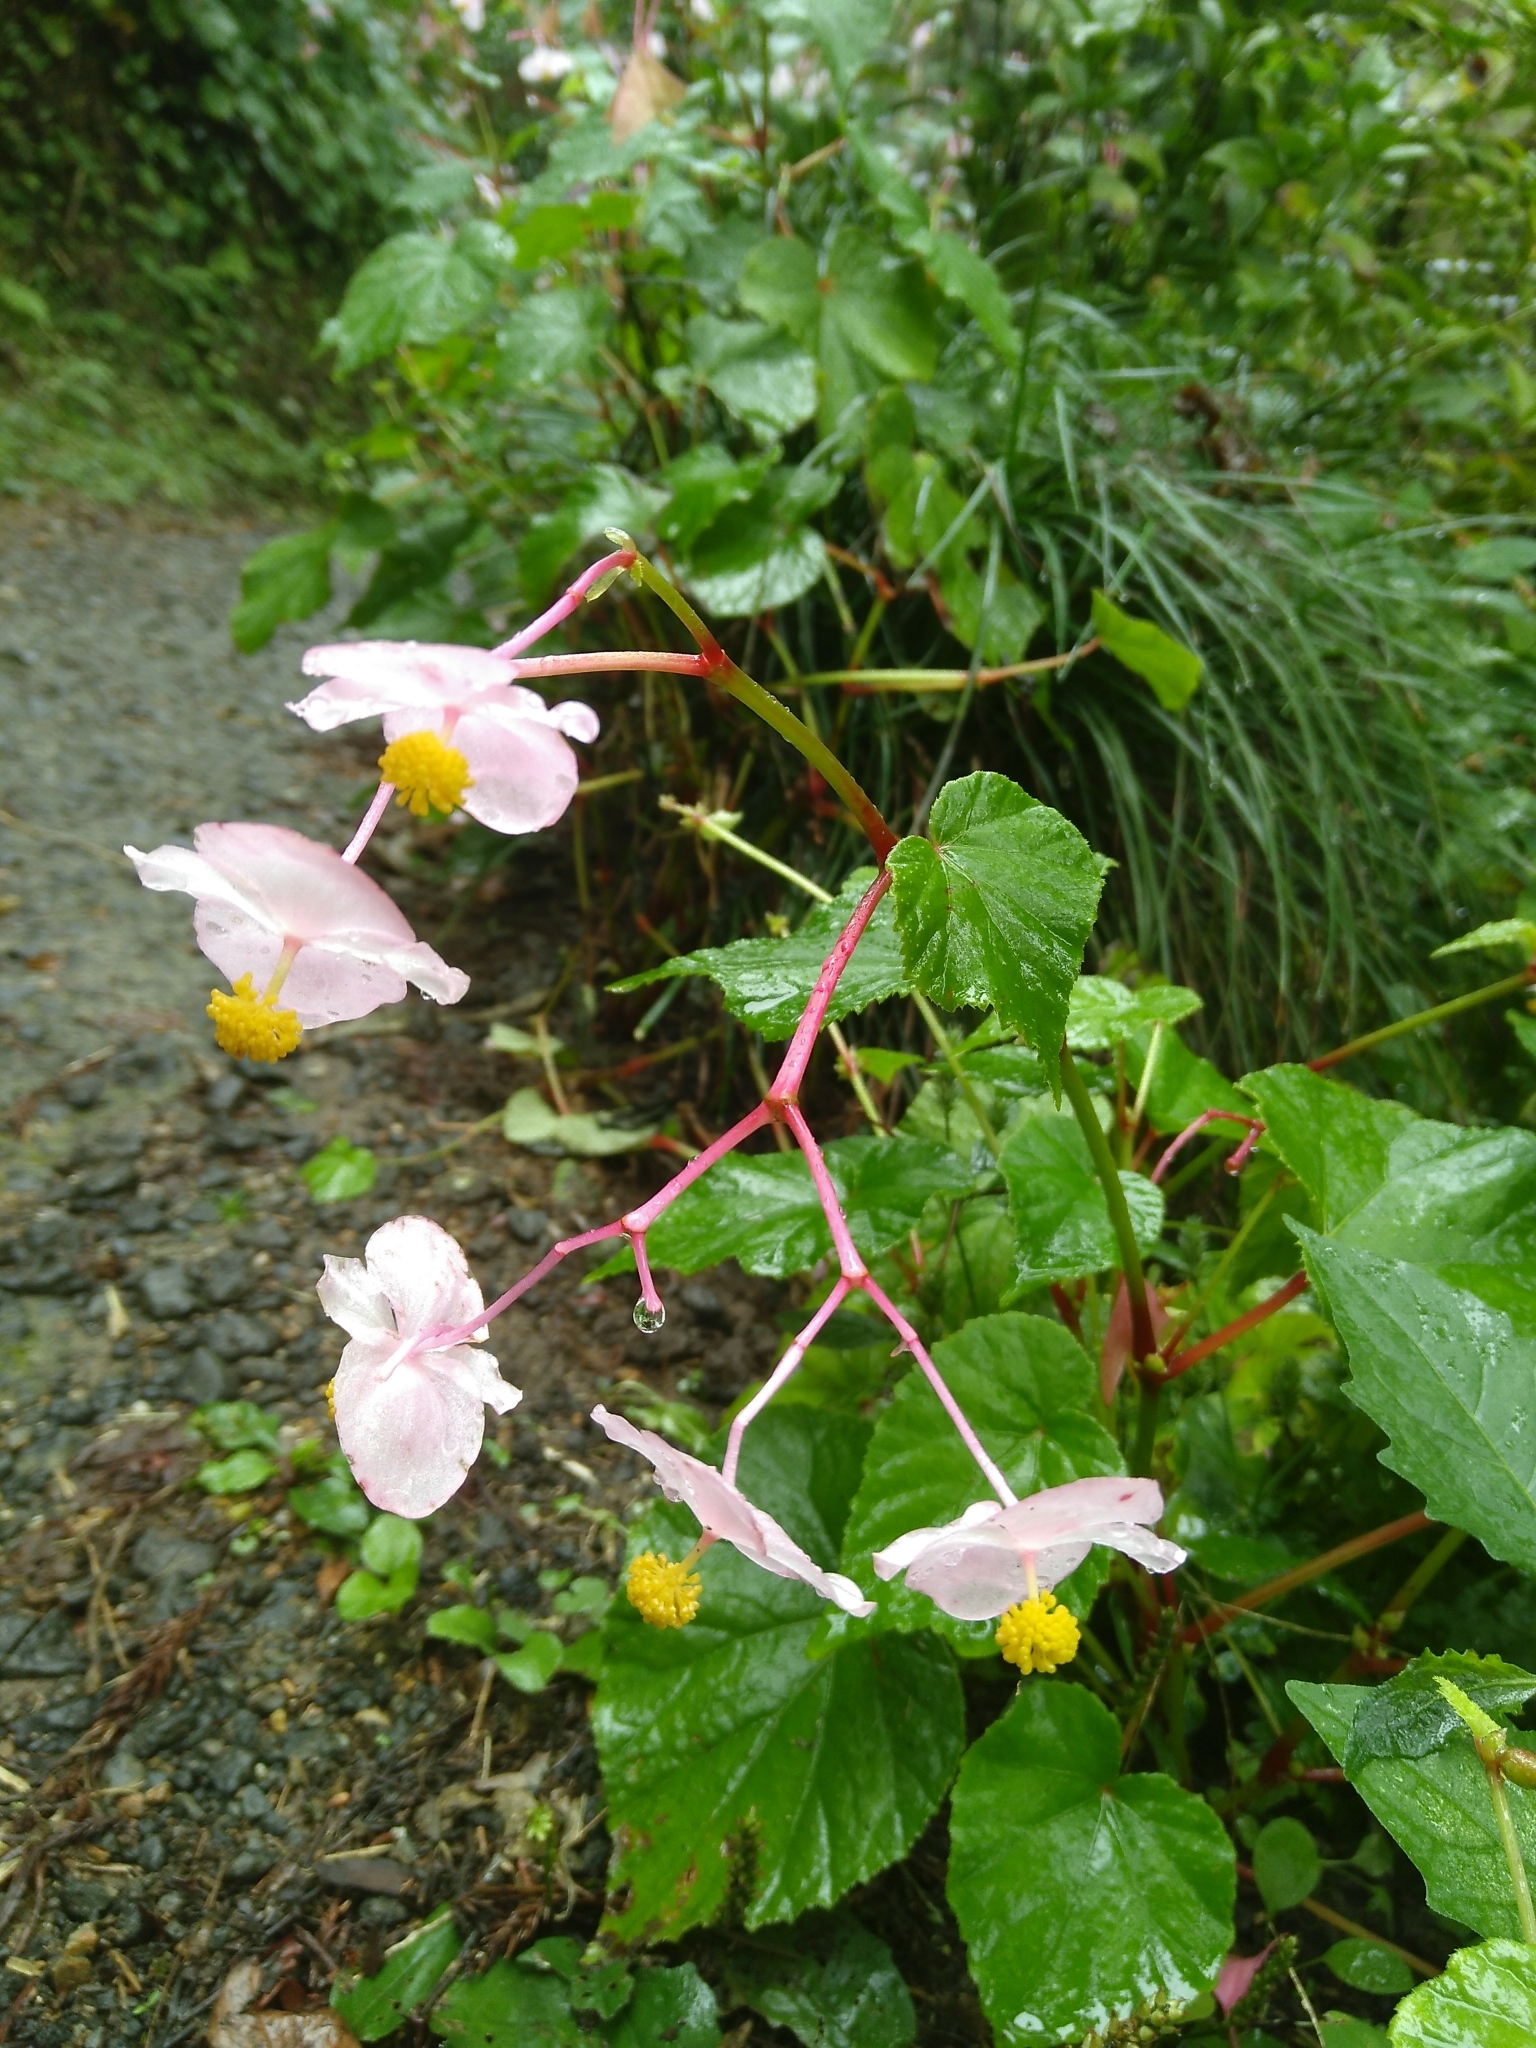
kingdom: Plantae
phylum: Tracheophyta
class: Magnoliopsida
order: Cucurbitales
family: Begoniaceae
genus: Begonia
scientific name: Begonia grandis
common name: Hardy begonia
